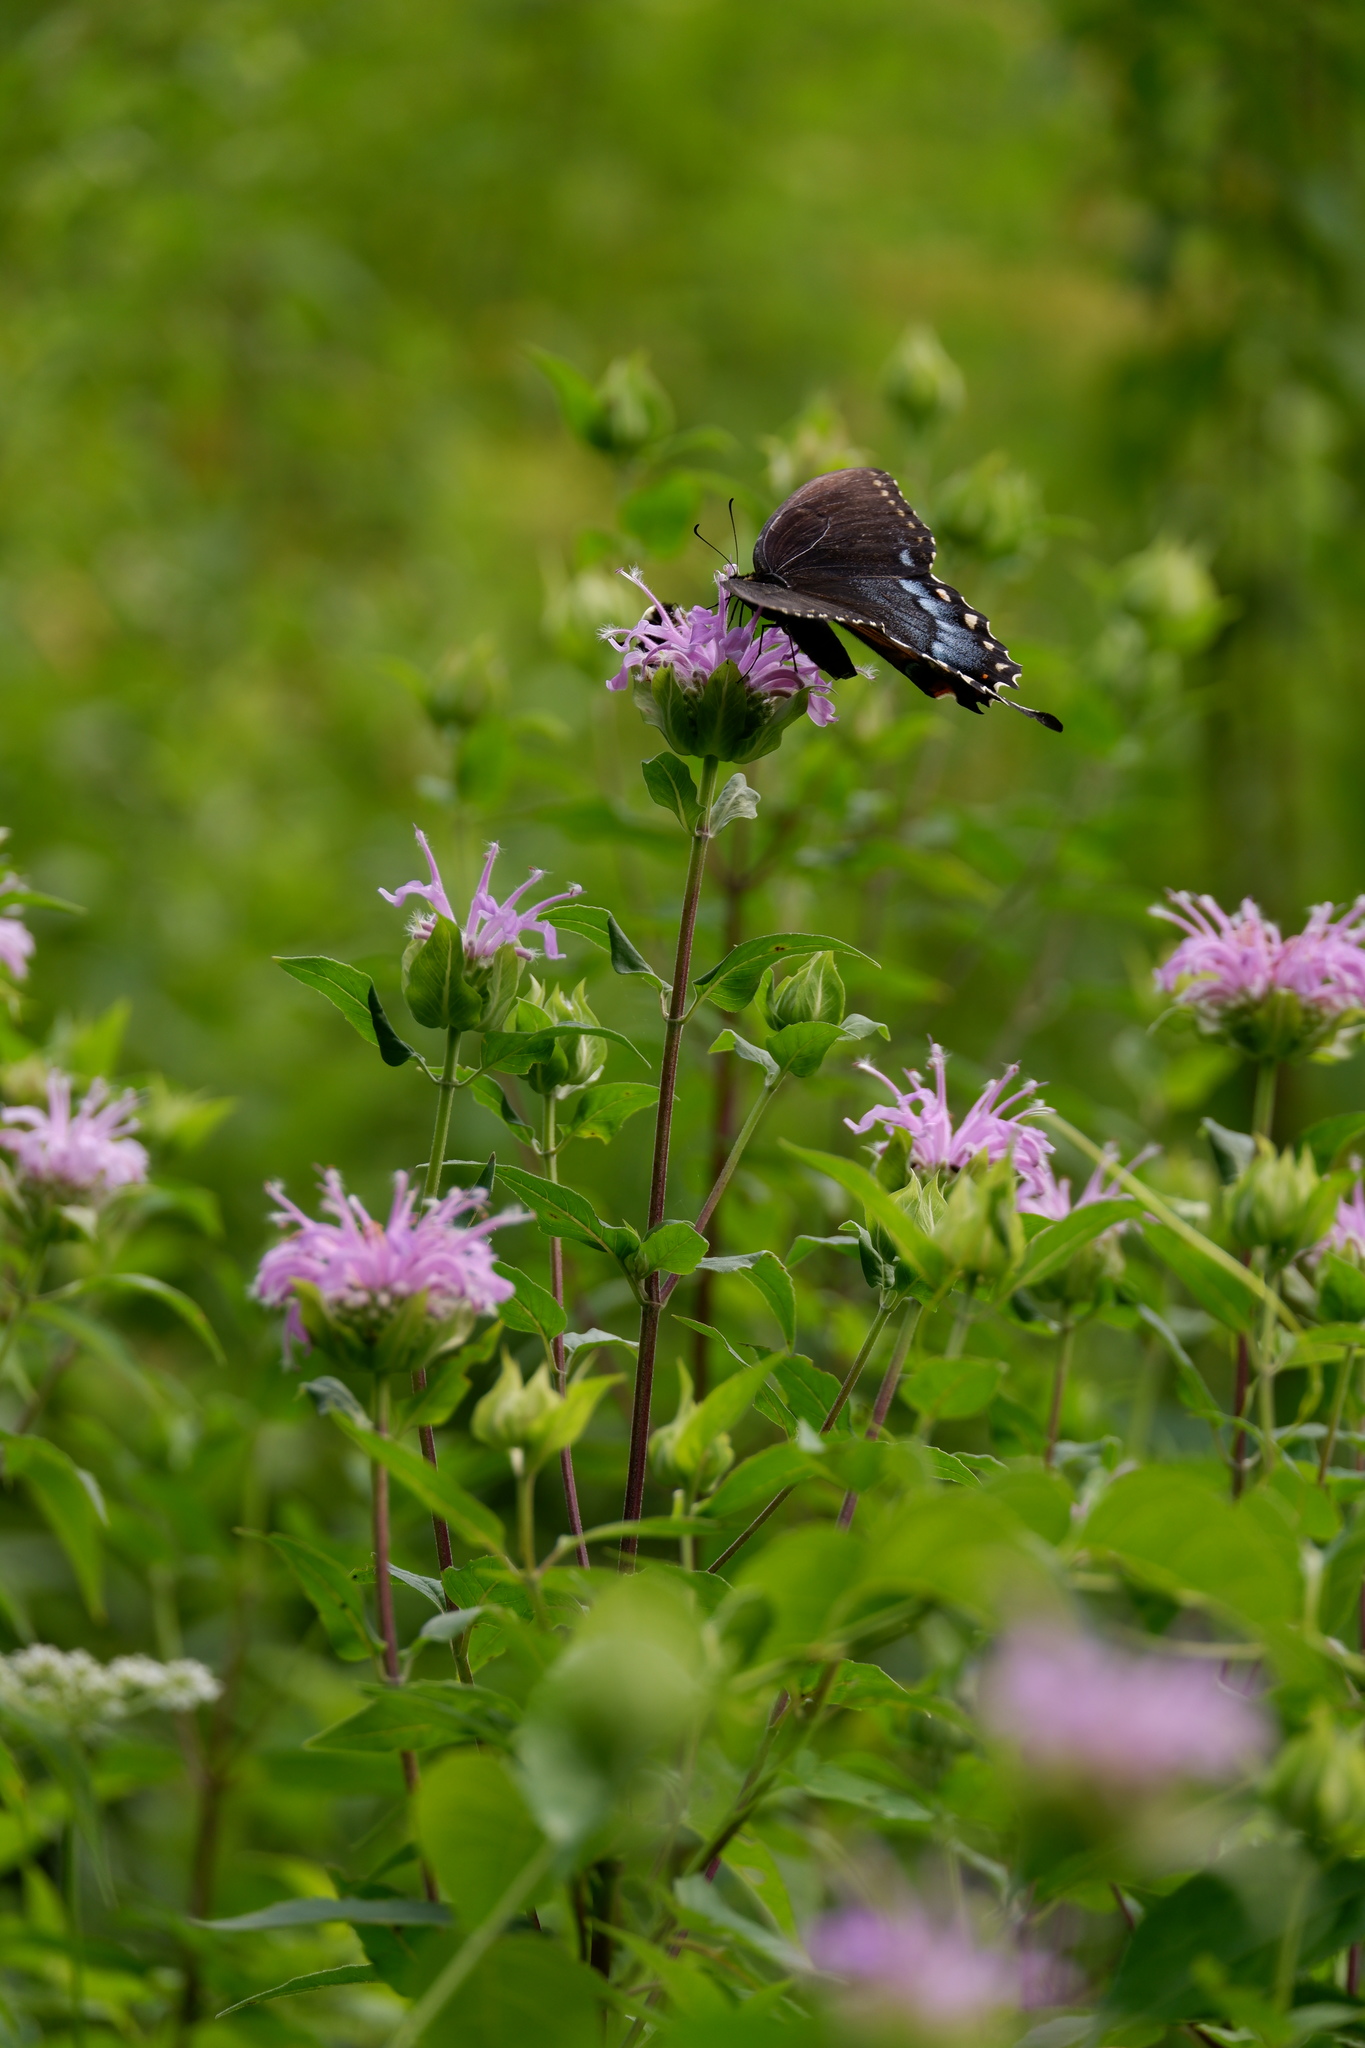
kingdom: Animalia
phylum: Arthropoda
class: Insecta
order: Lepidoptera
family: Papilionidae
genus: Papilio
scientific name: Papilio glaucus
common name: Tiger swallowtail
